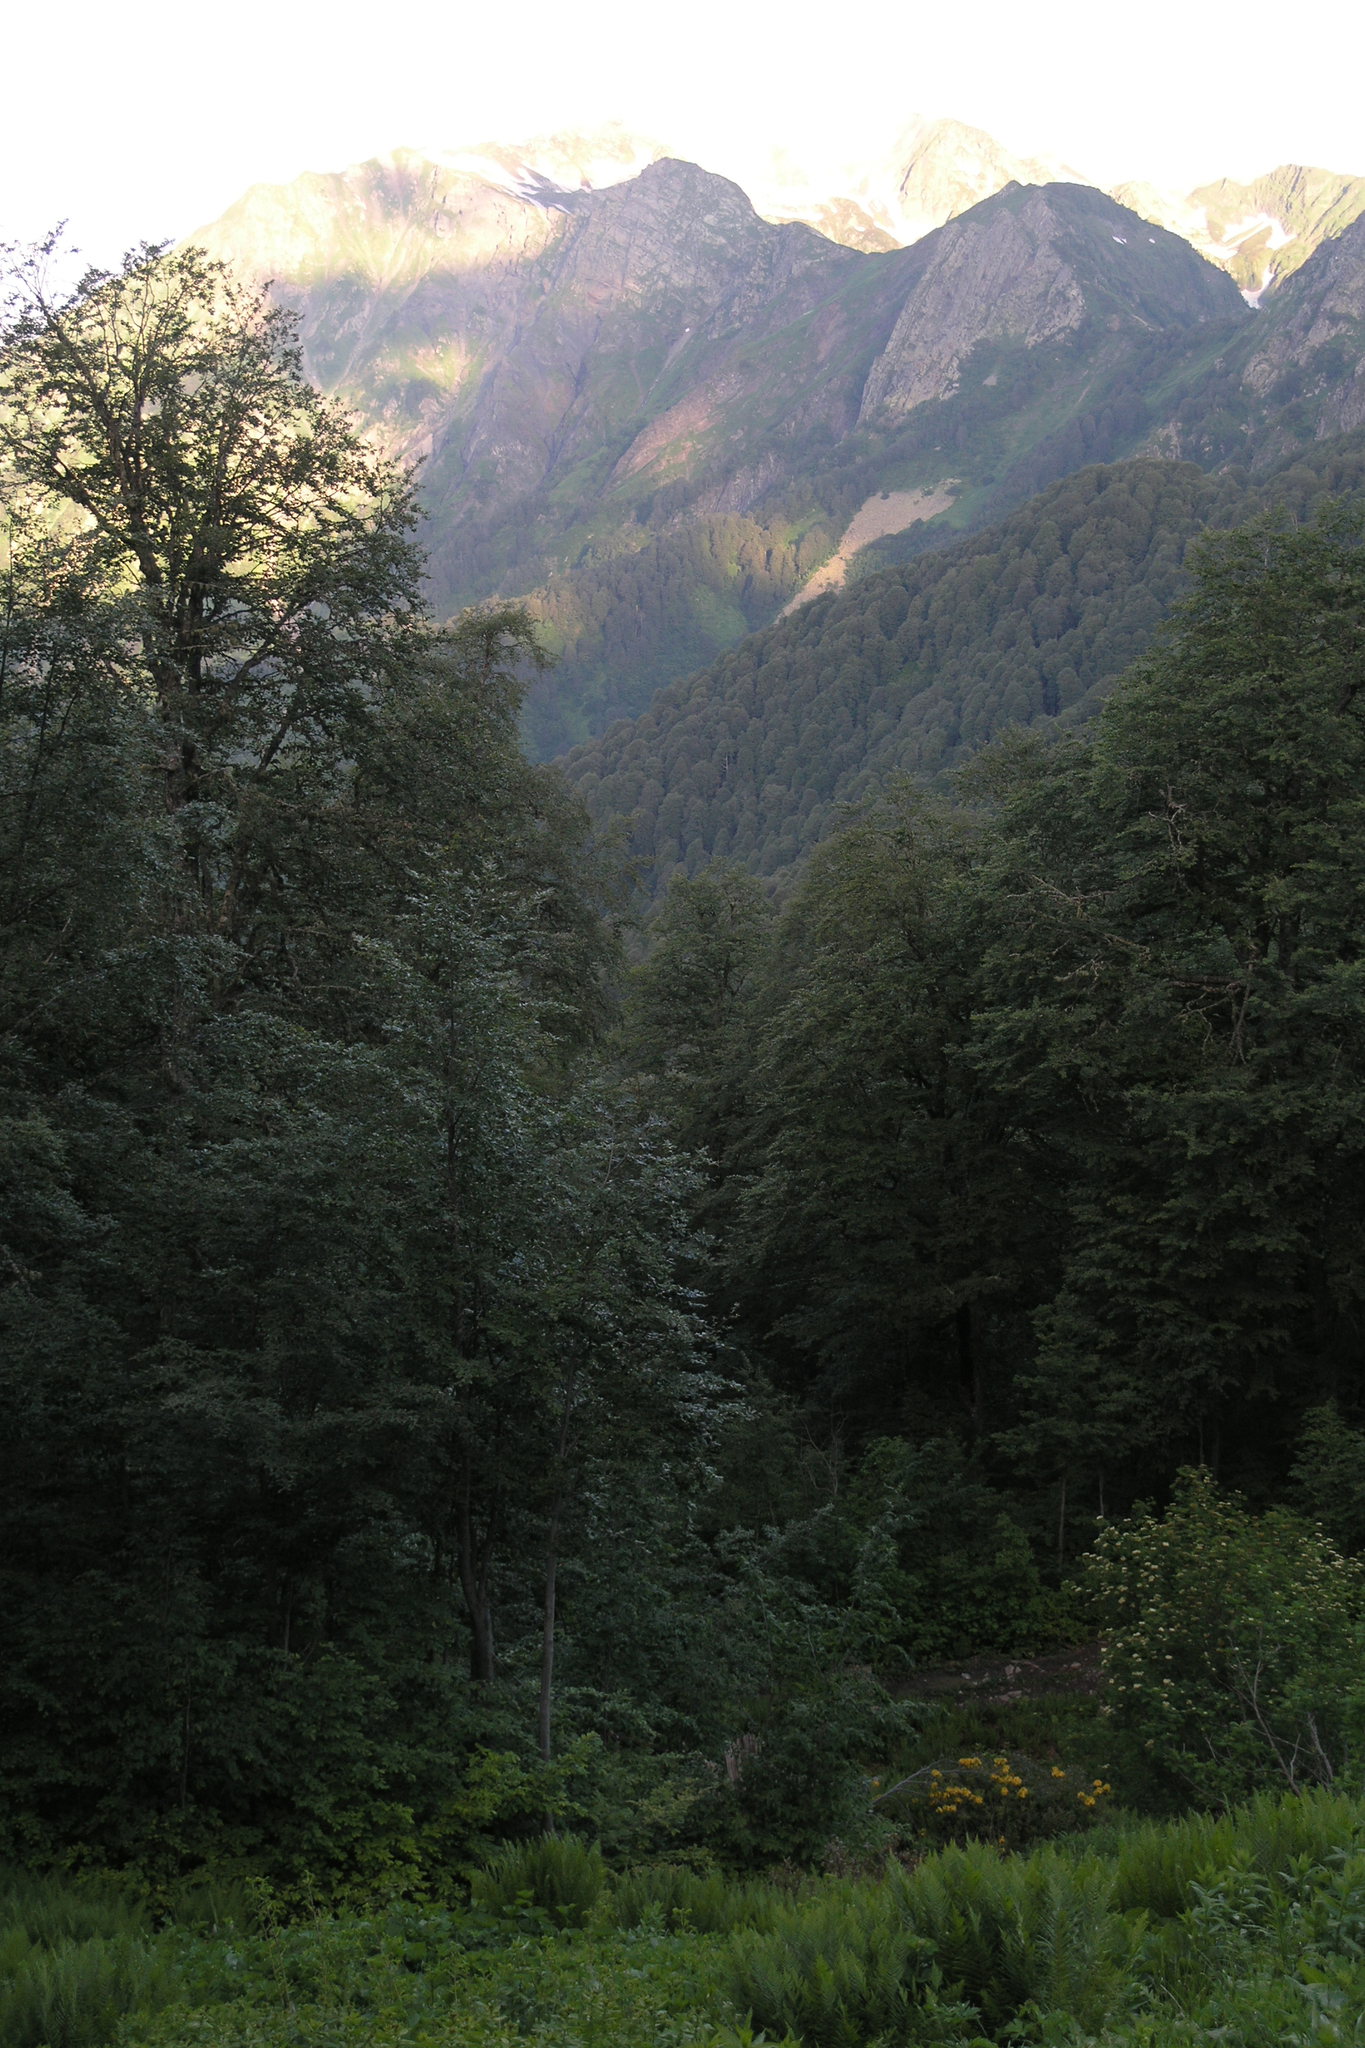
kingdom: Plantae
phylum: Tracheophyta
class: Magnoliopsida
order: Fagales
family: Fagaceae
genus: Fagus
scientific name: Fagus orientalis
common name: Oriental beech
